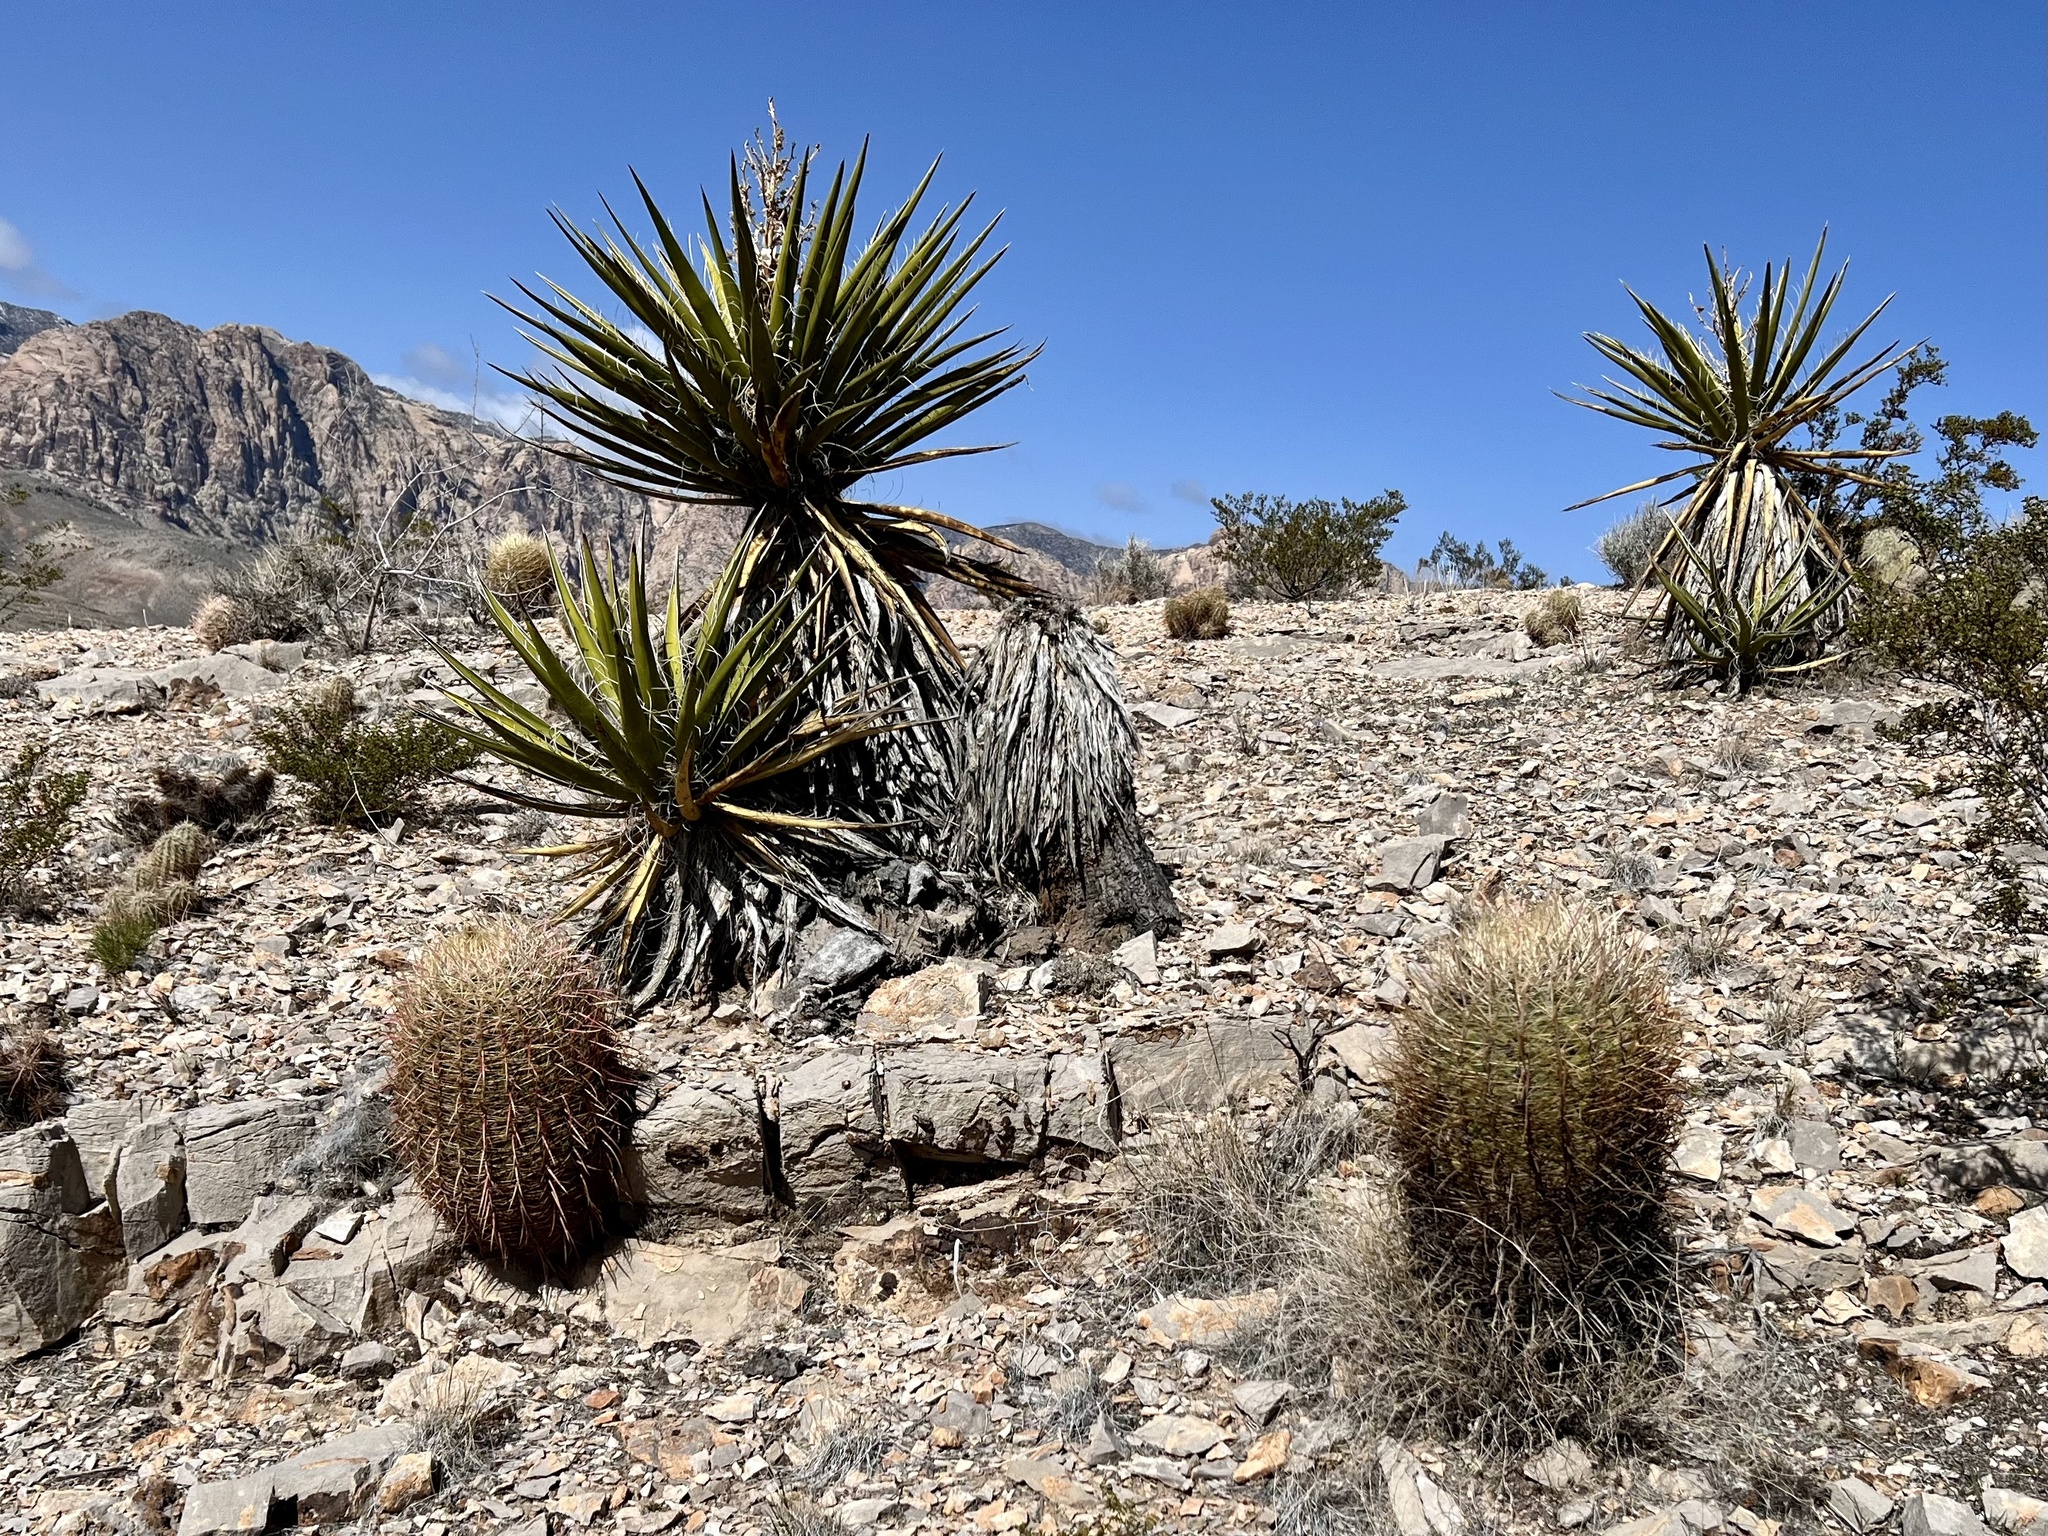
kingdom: Plantae
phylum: Tracheophyta
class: Magnoliopsida
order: Caryophyllales
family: Cactaceae
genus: Ferocactus
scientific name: Ferocactus cylindraceus
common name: California barrel cactus
